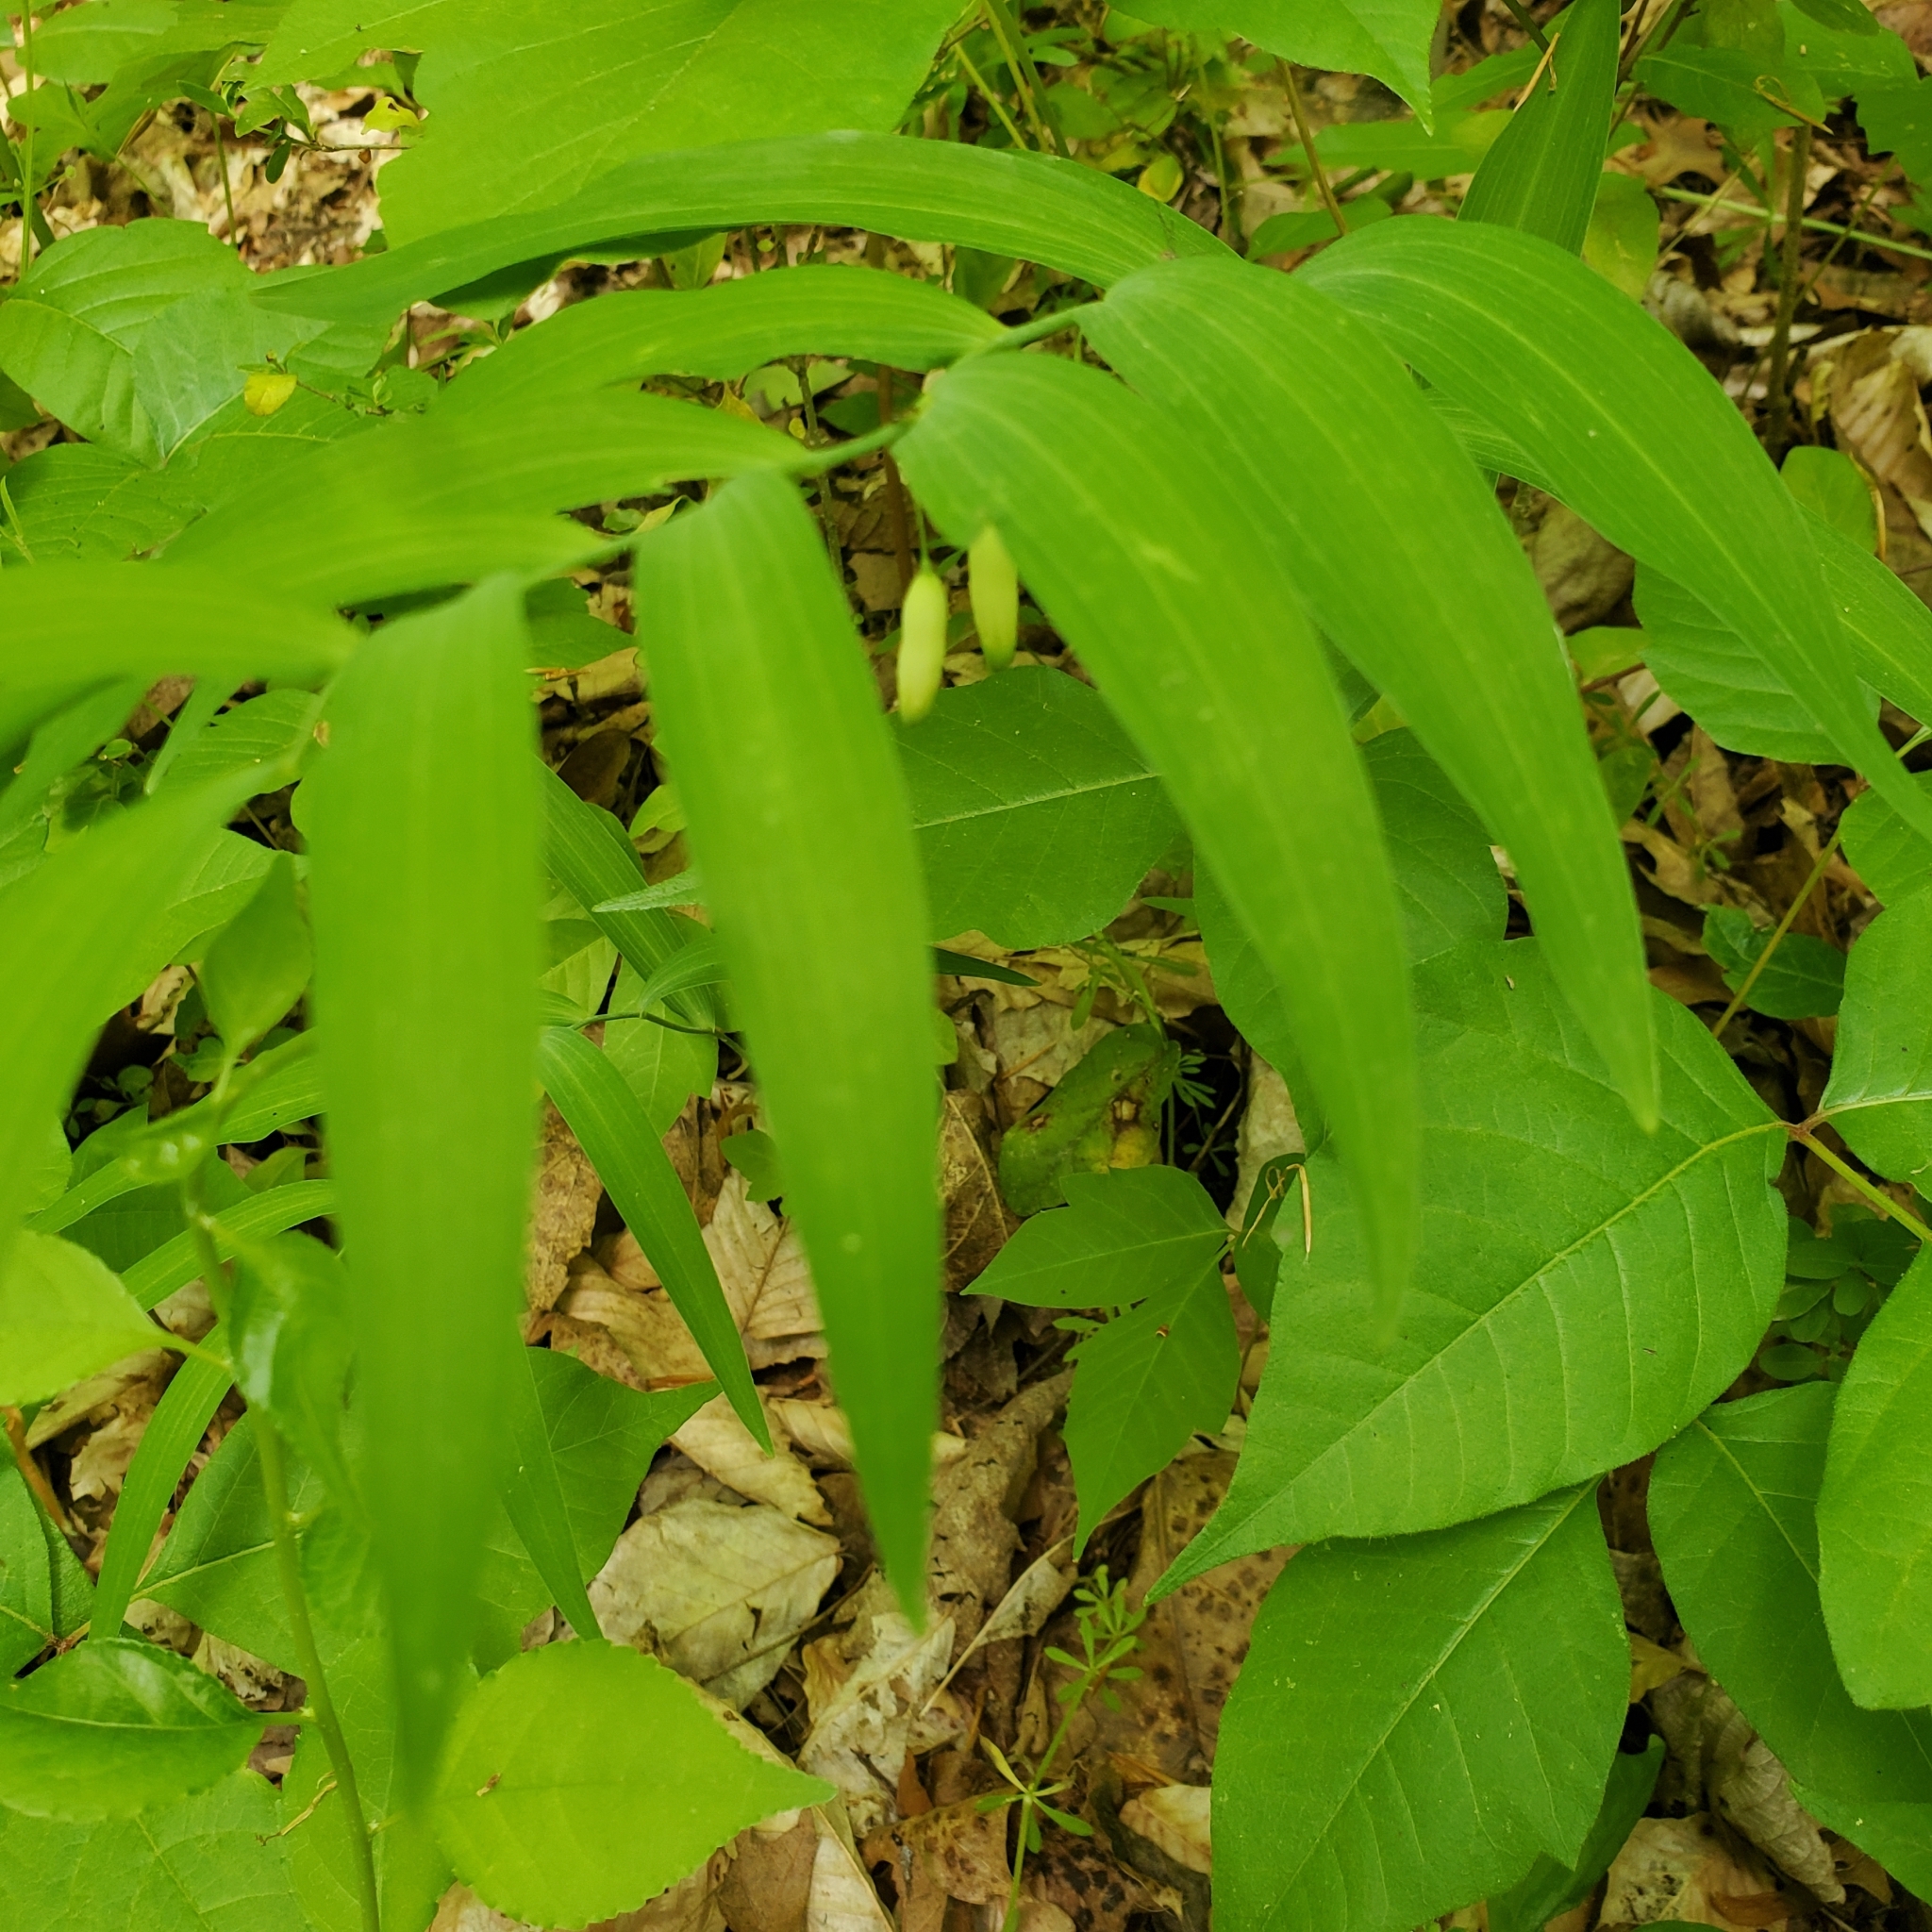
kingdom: Plantae
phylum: Tracheophyta
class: Liliopsida
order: Asparagales
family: Asparagaceae
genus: Polygonatum
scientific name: Polygonatum biflorum
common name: American solomon's-seal
